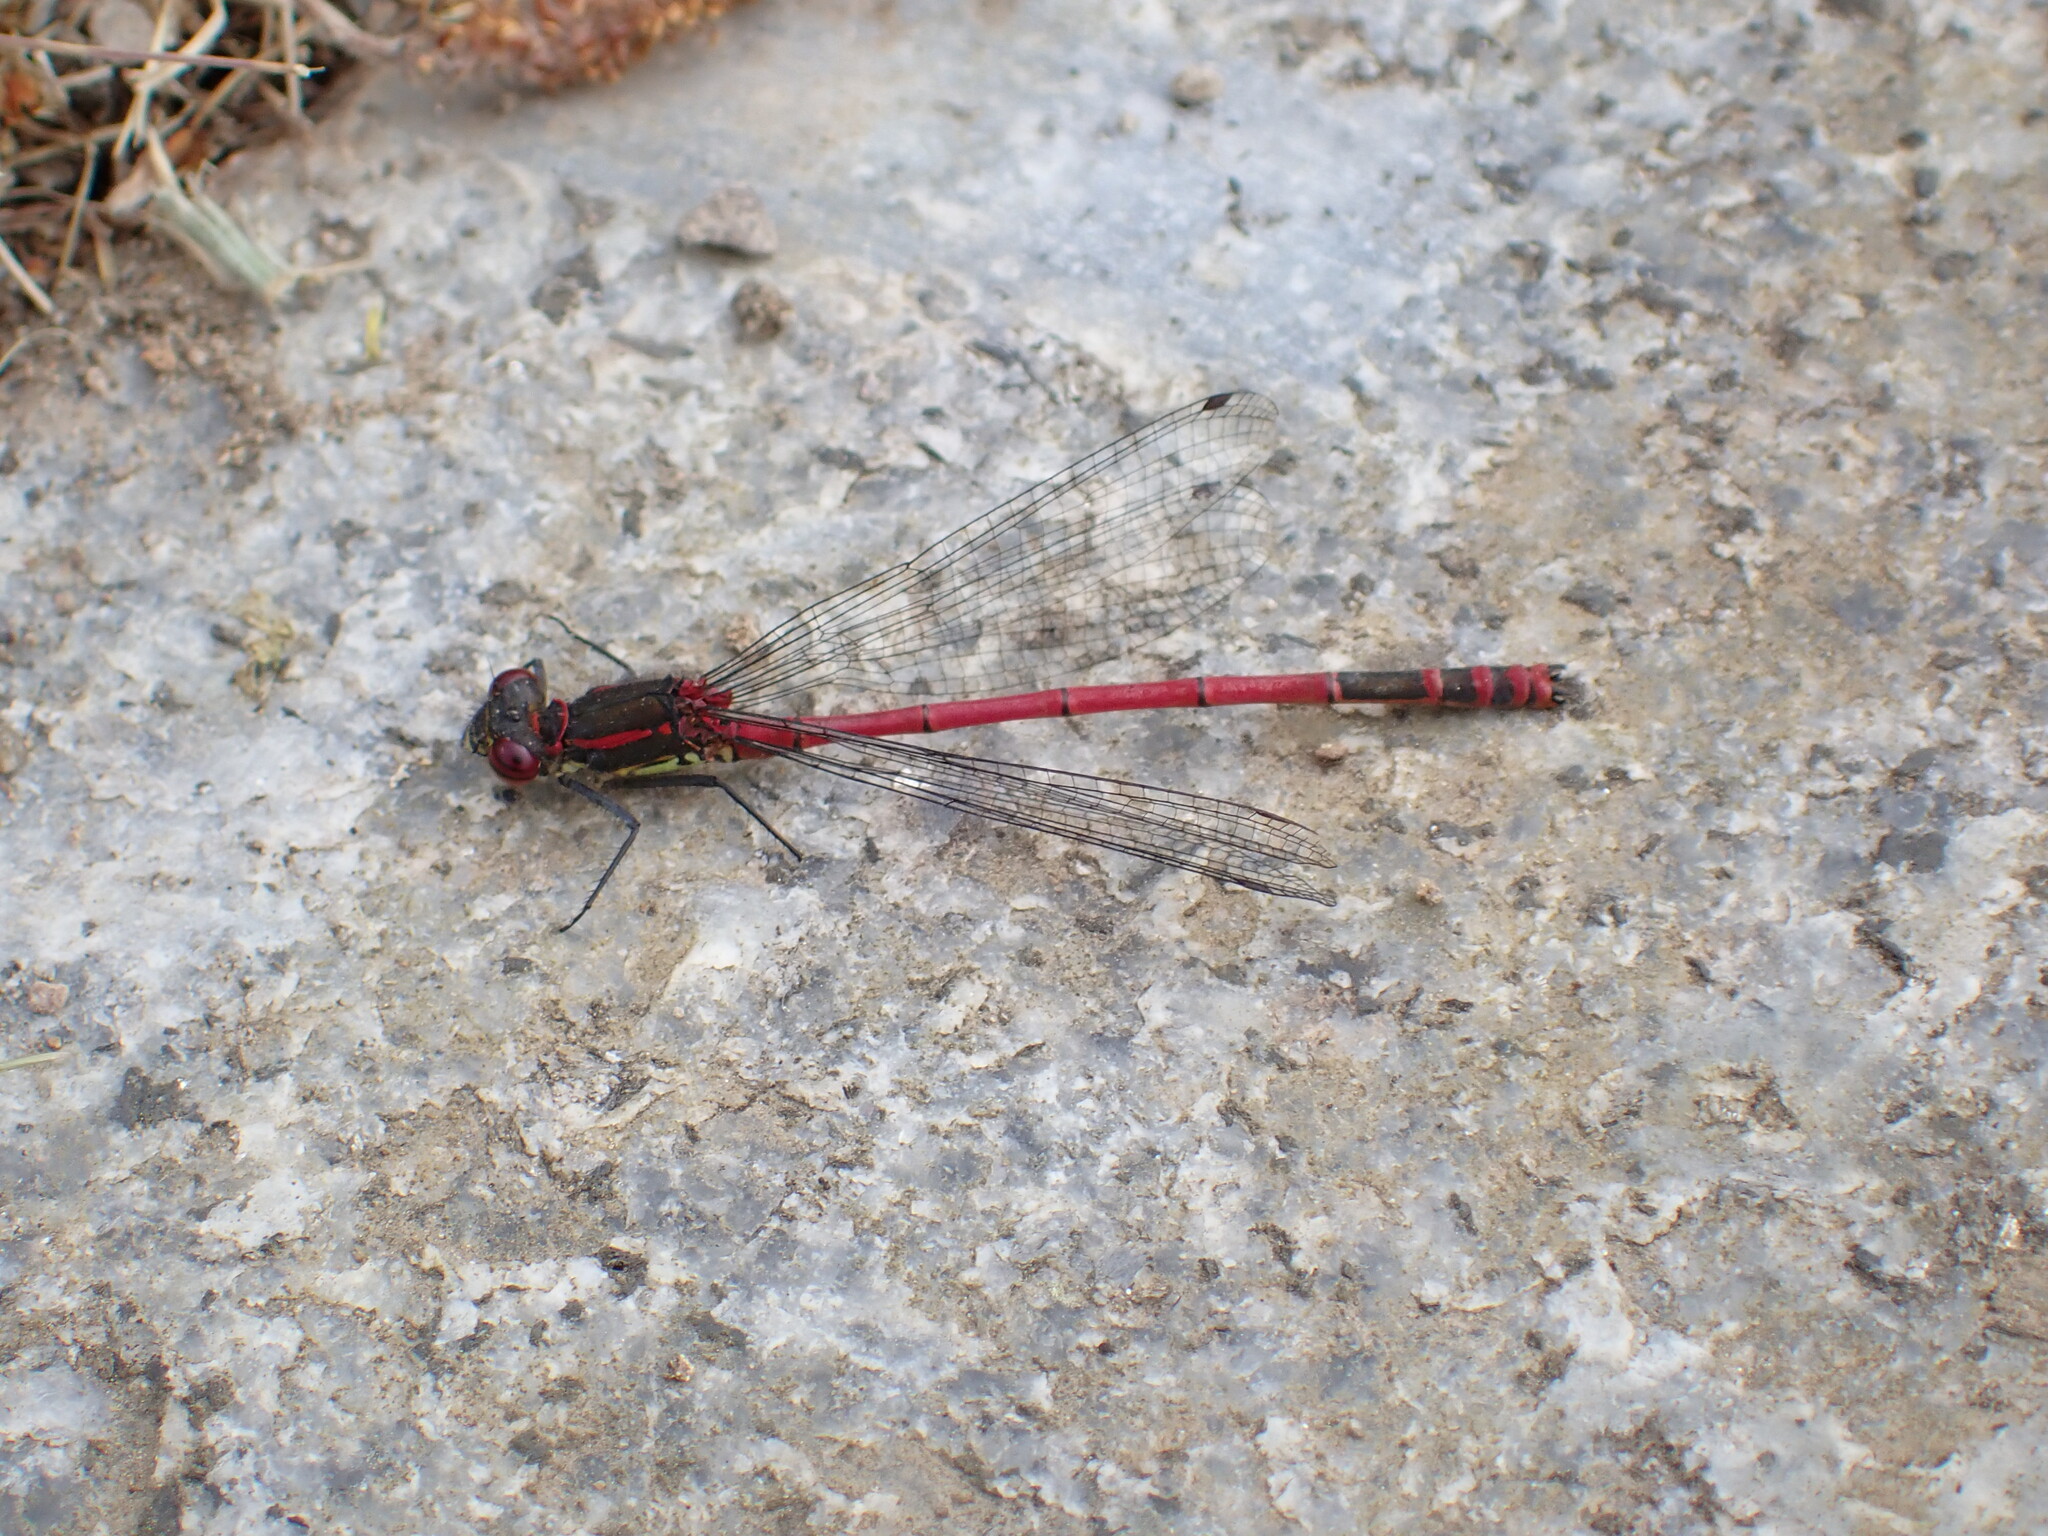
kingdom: Animalia
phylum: Arthropoda
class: Insecta
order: Odonata
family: Coenagrionidae
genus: Pyrrhosoma
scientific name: Pyrrhosoma nymphula
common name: Large red damsel
